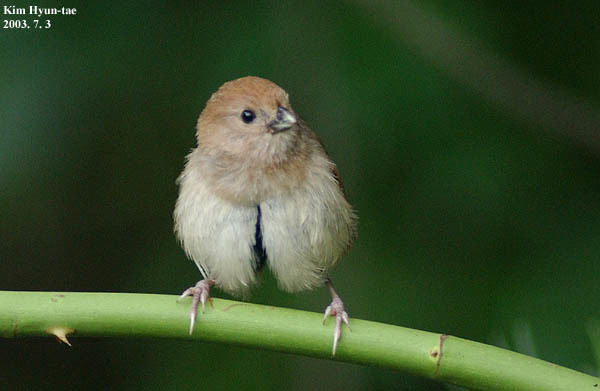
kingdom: Animalia
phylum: Chordata
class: Aves
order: Passeriformes
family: Sylviidae
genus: Sinosuthora
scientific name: Sinosuthora webbiana
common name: Vinous-throated parrotbill
